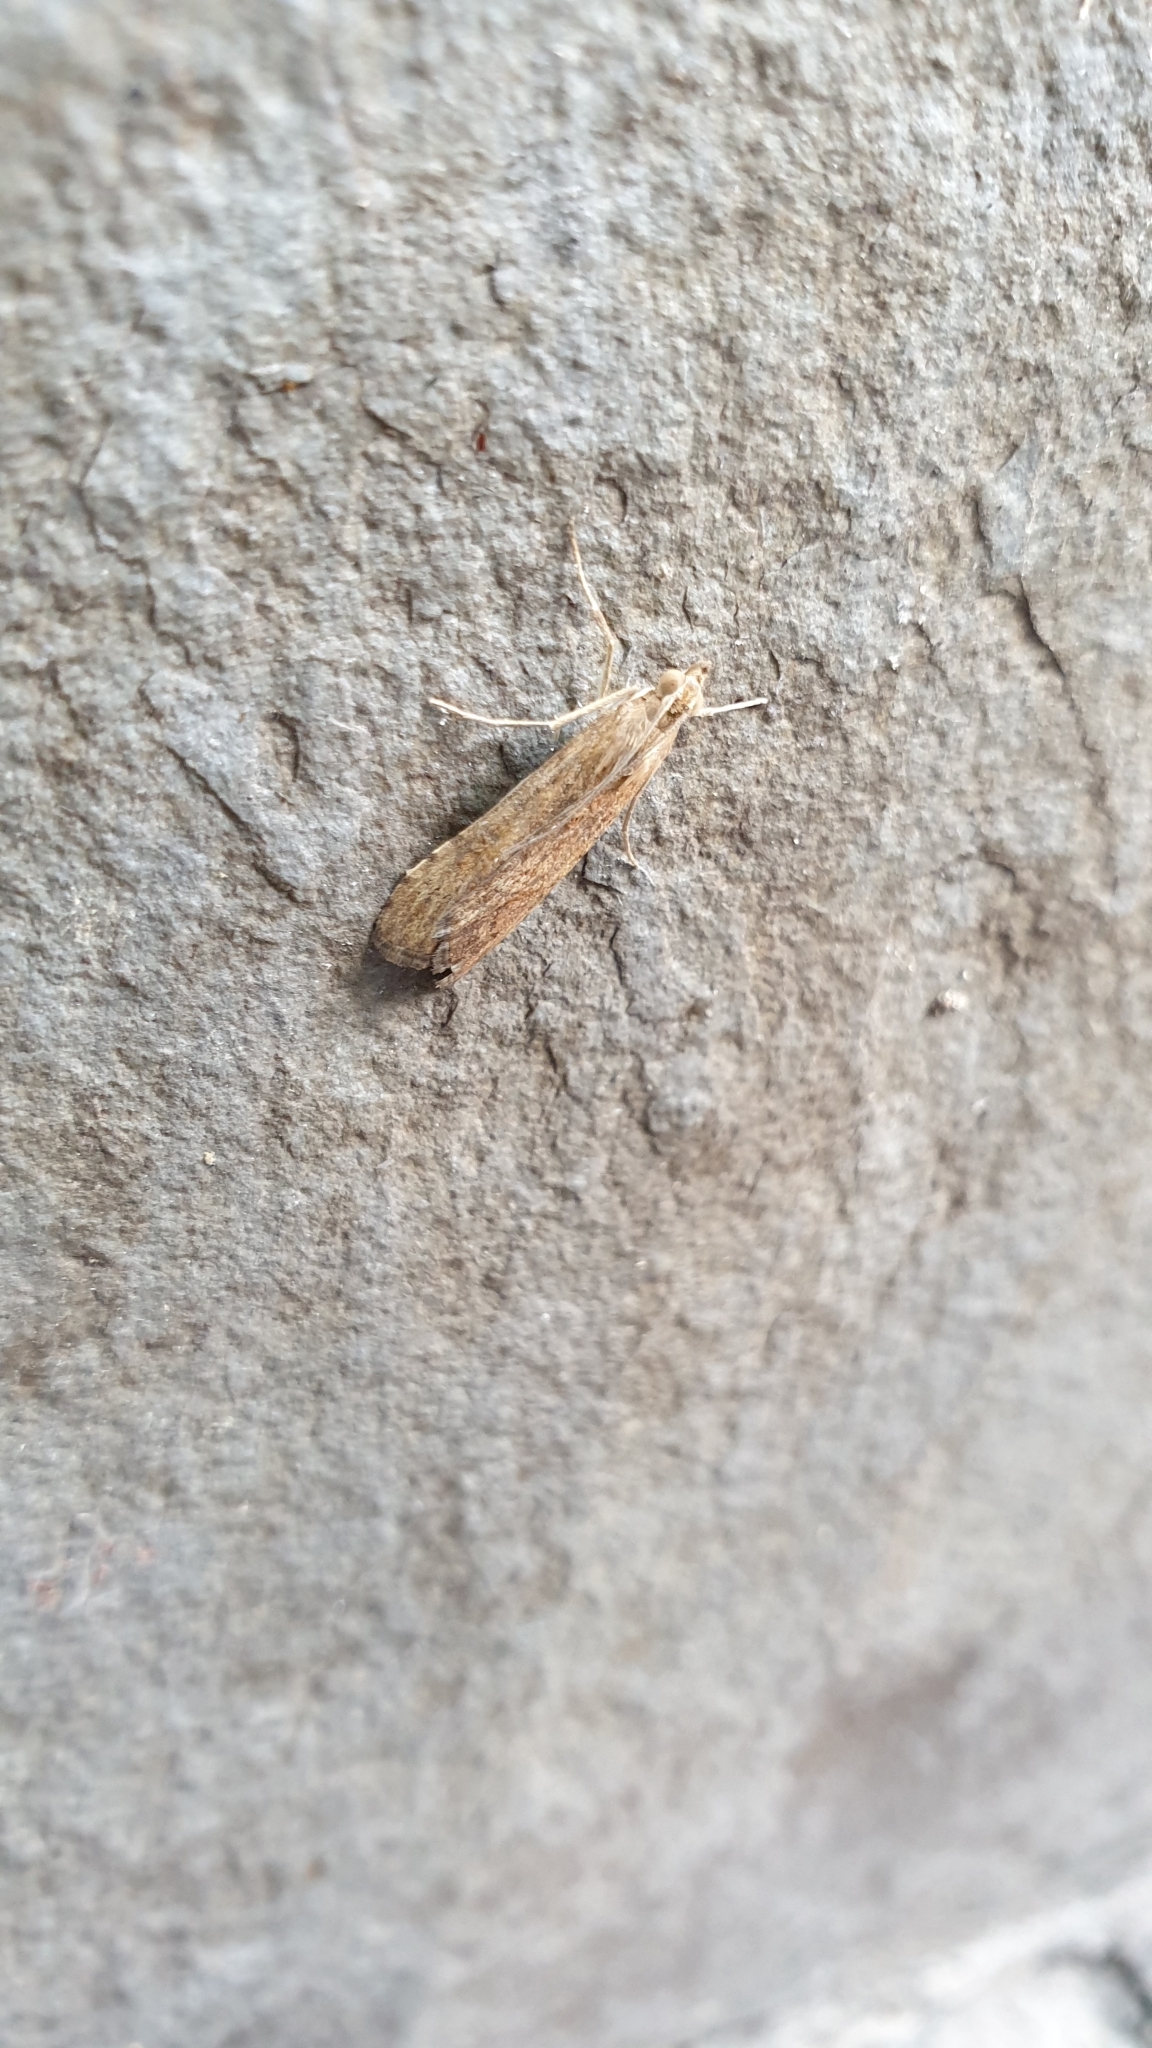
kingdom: Animalia
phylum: Arthropoda
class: Insecta
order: Lepidoptera
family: Crambidae
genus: Nomophila
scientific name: Nomophila noctuella
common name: Rush veneer
